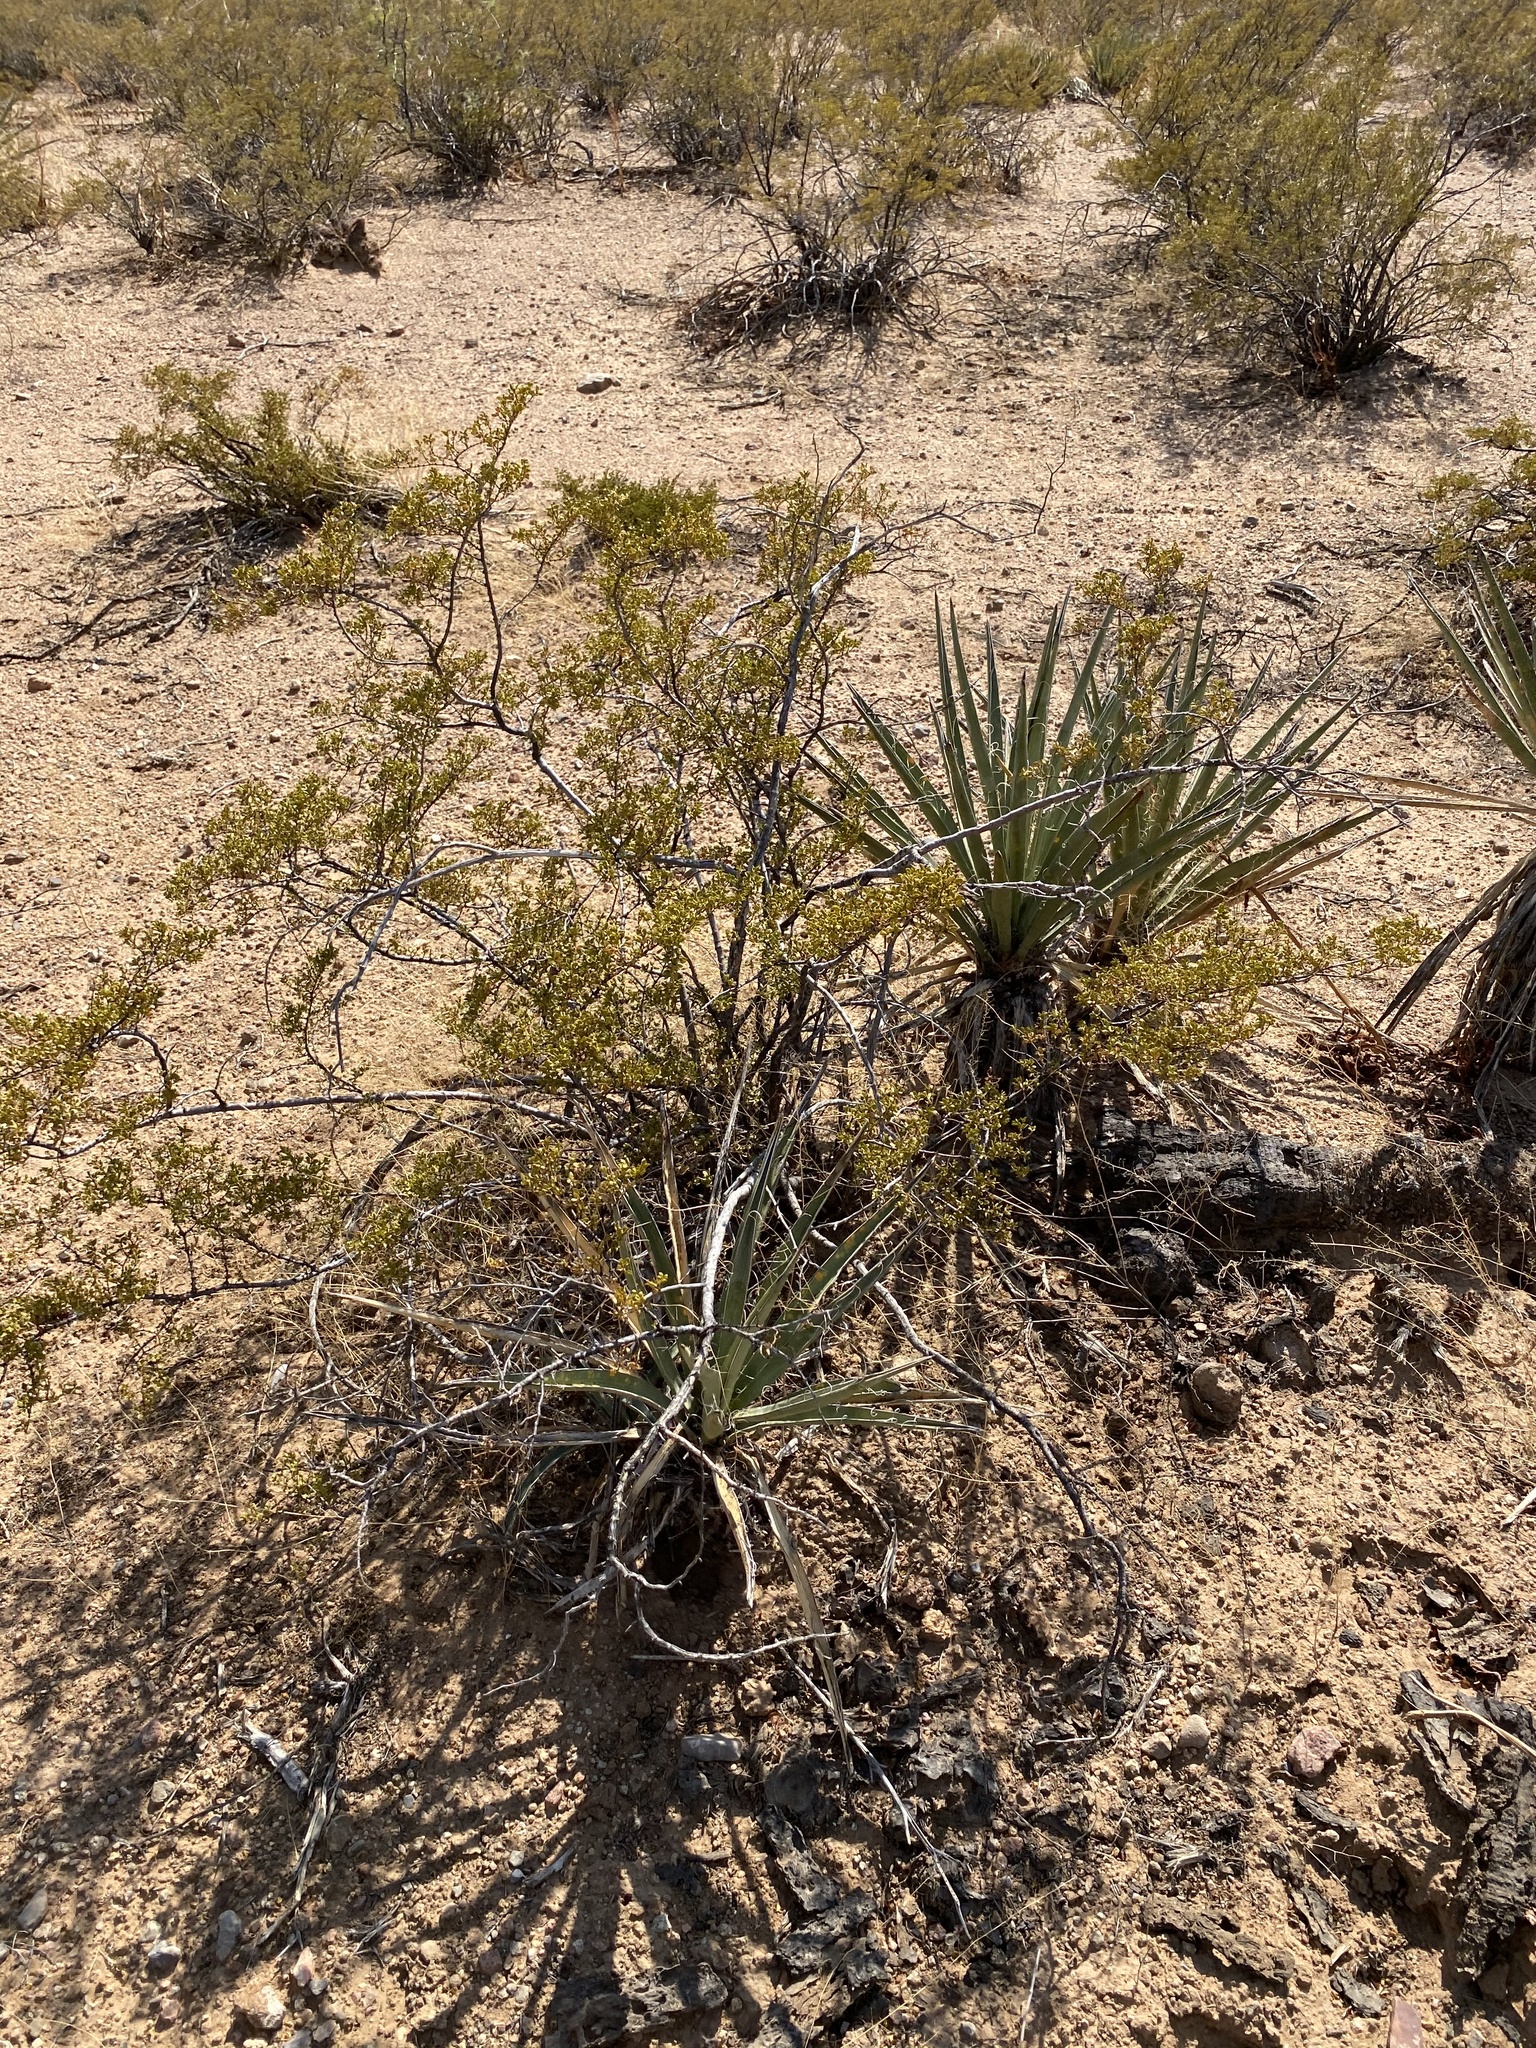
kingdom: Plantae
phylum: Tracheophyta
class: Magnoliopsida
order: Zygophyllales
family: Zygophyllaceae
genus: Larrea
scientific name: Larrea tridentata
